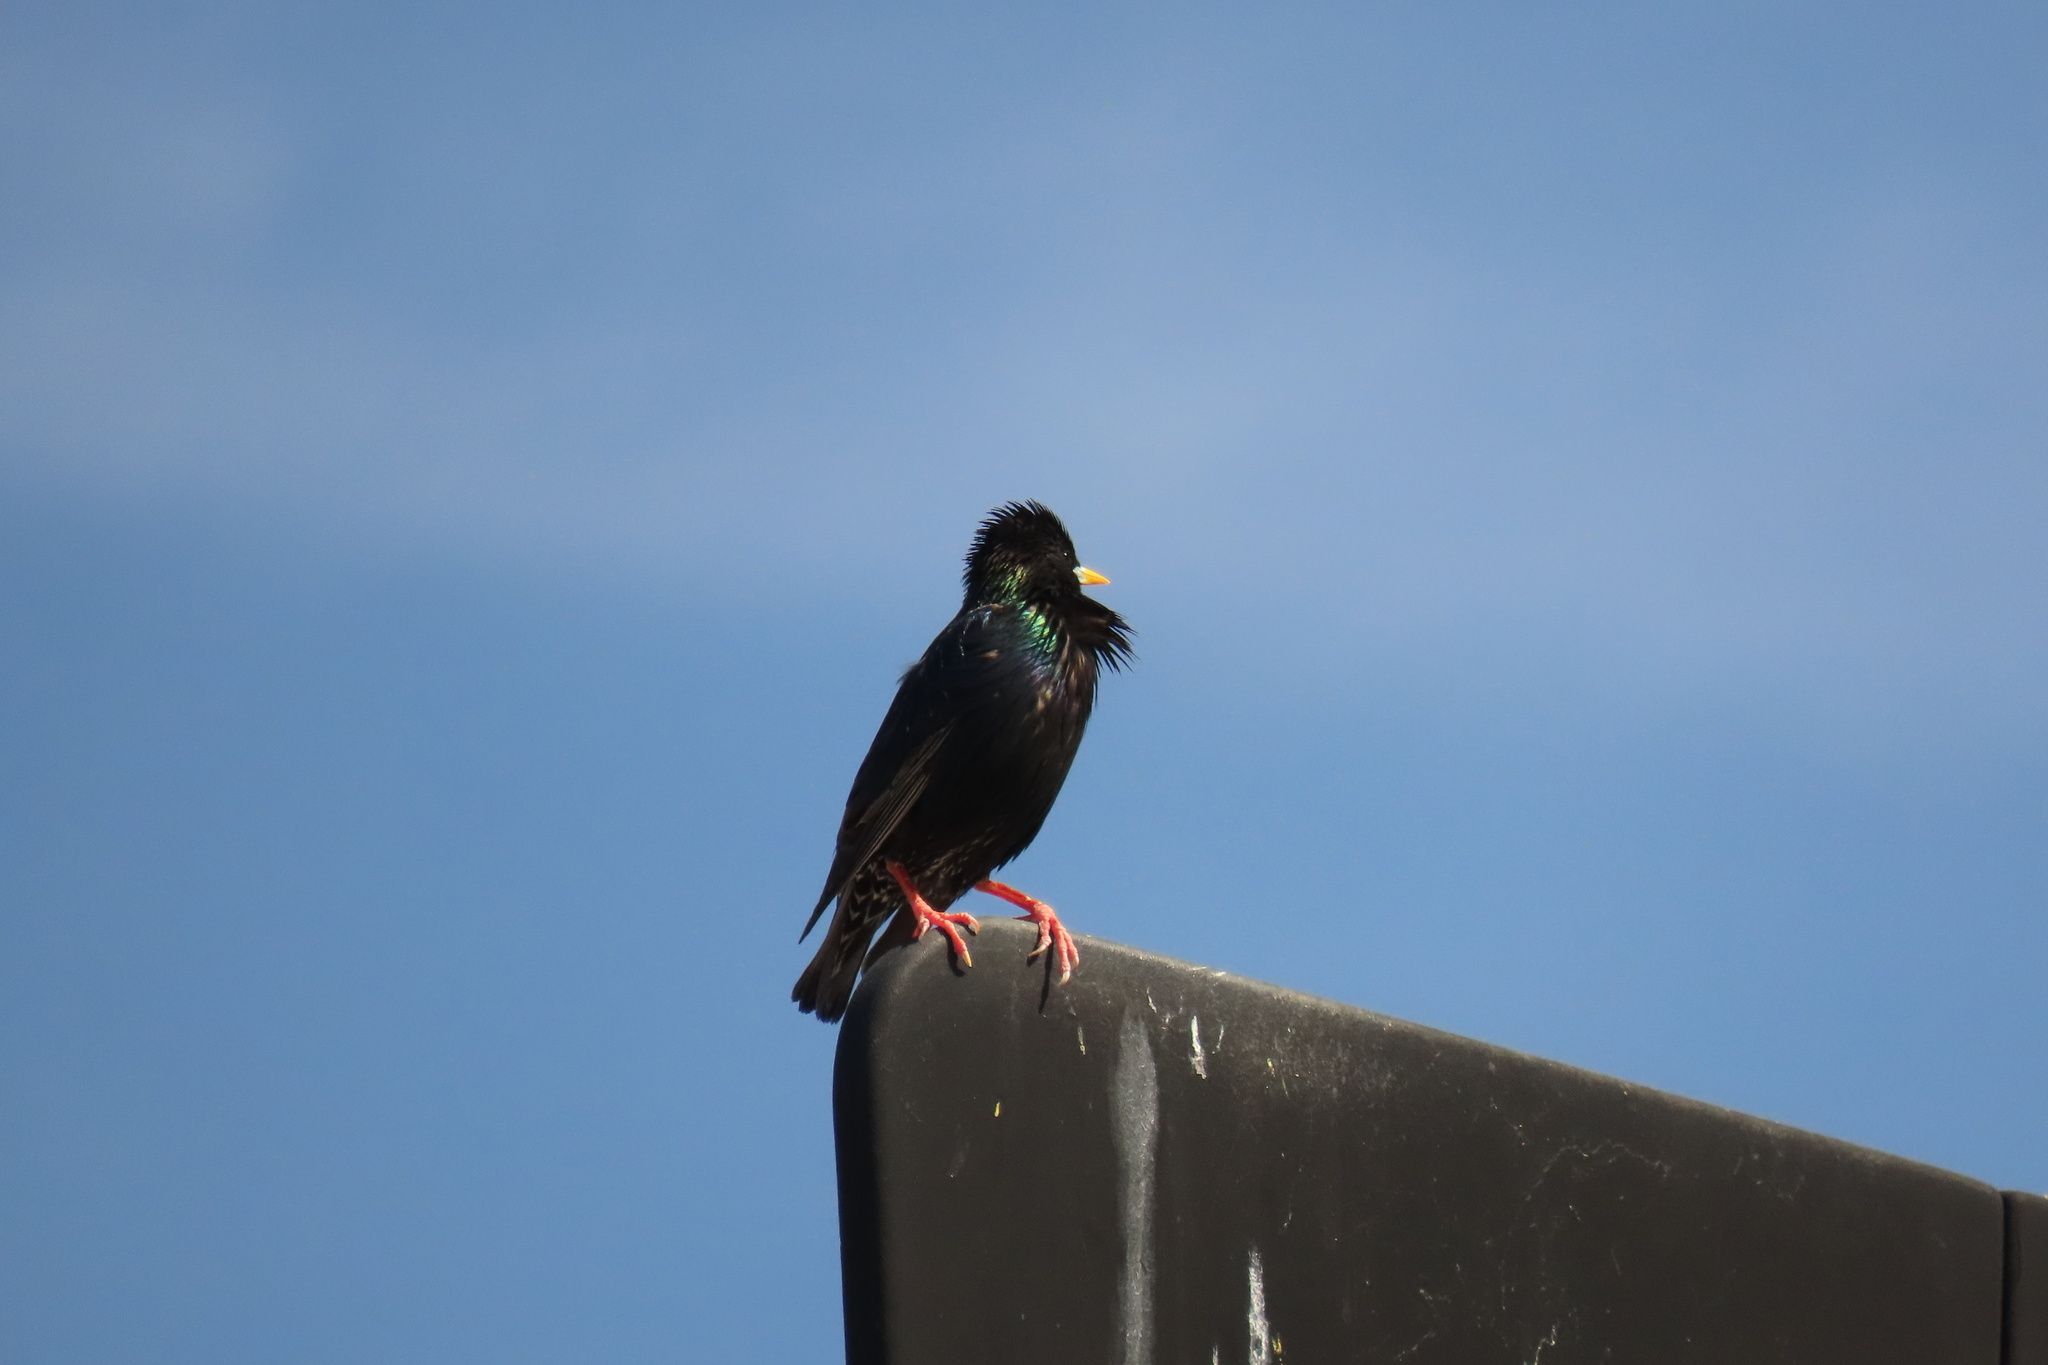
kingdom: Animalia
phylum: Chordata
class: Aves
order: Passeriformes
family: Sturnidae
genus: Sturnus
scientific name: Sturnus vulgaris
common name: Common starling
